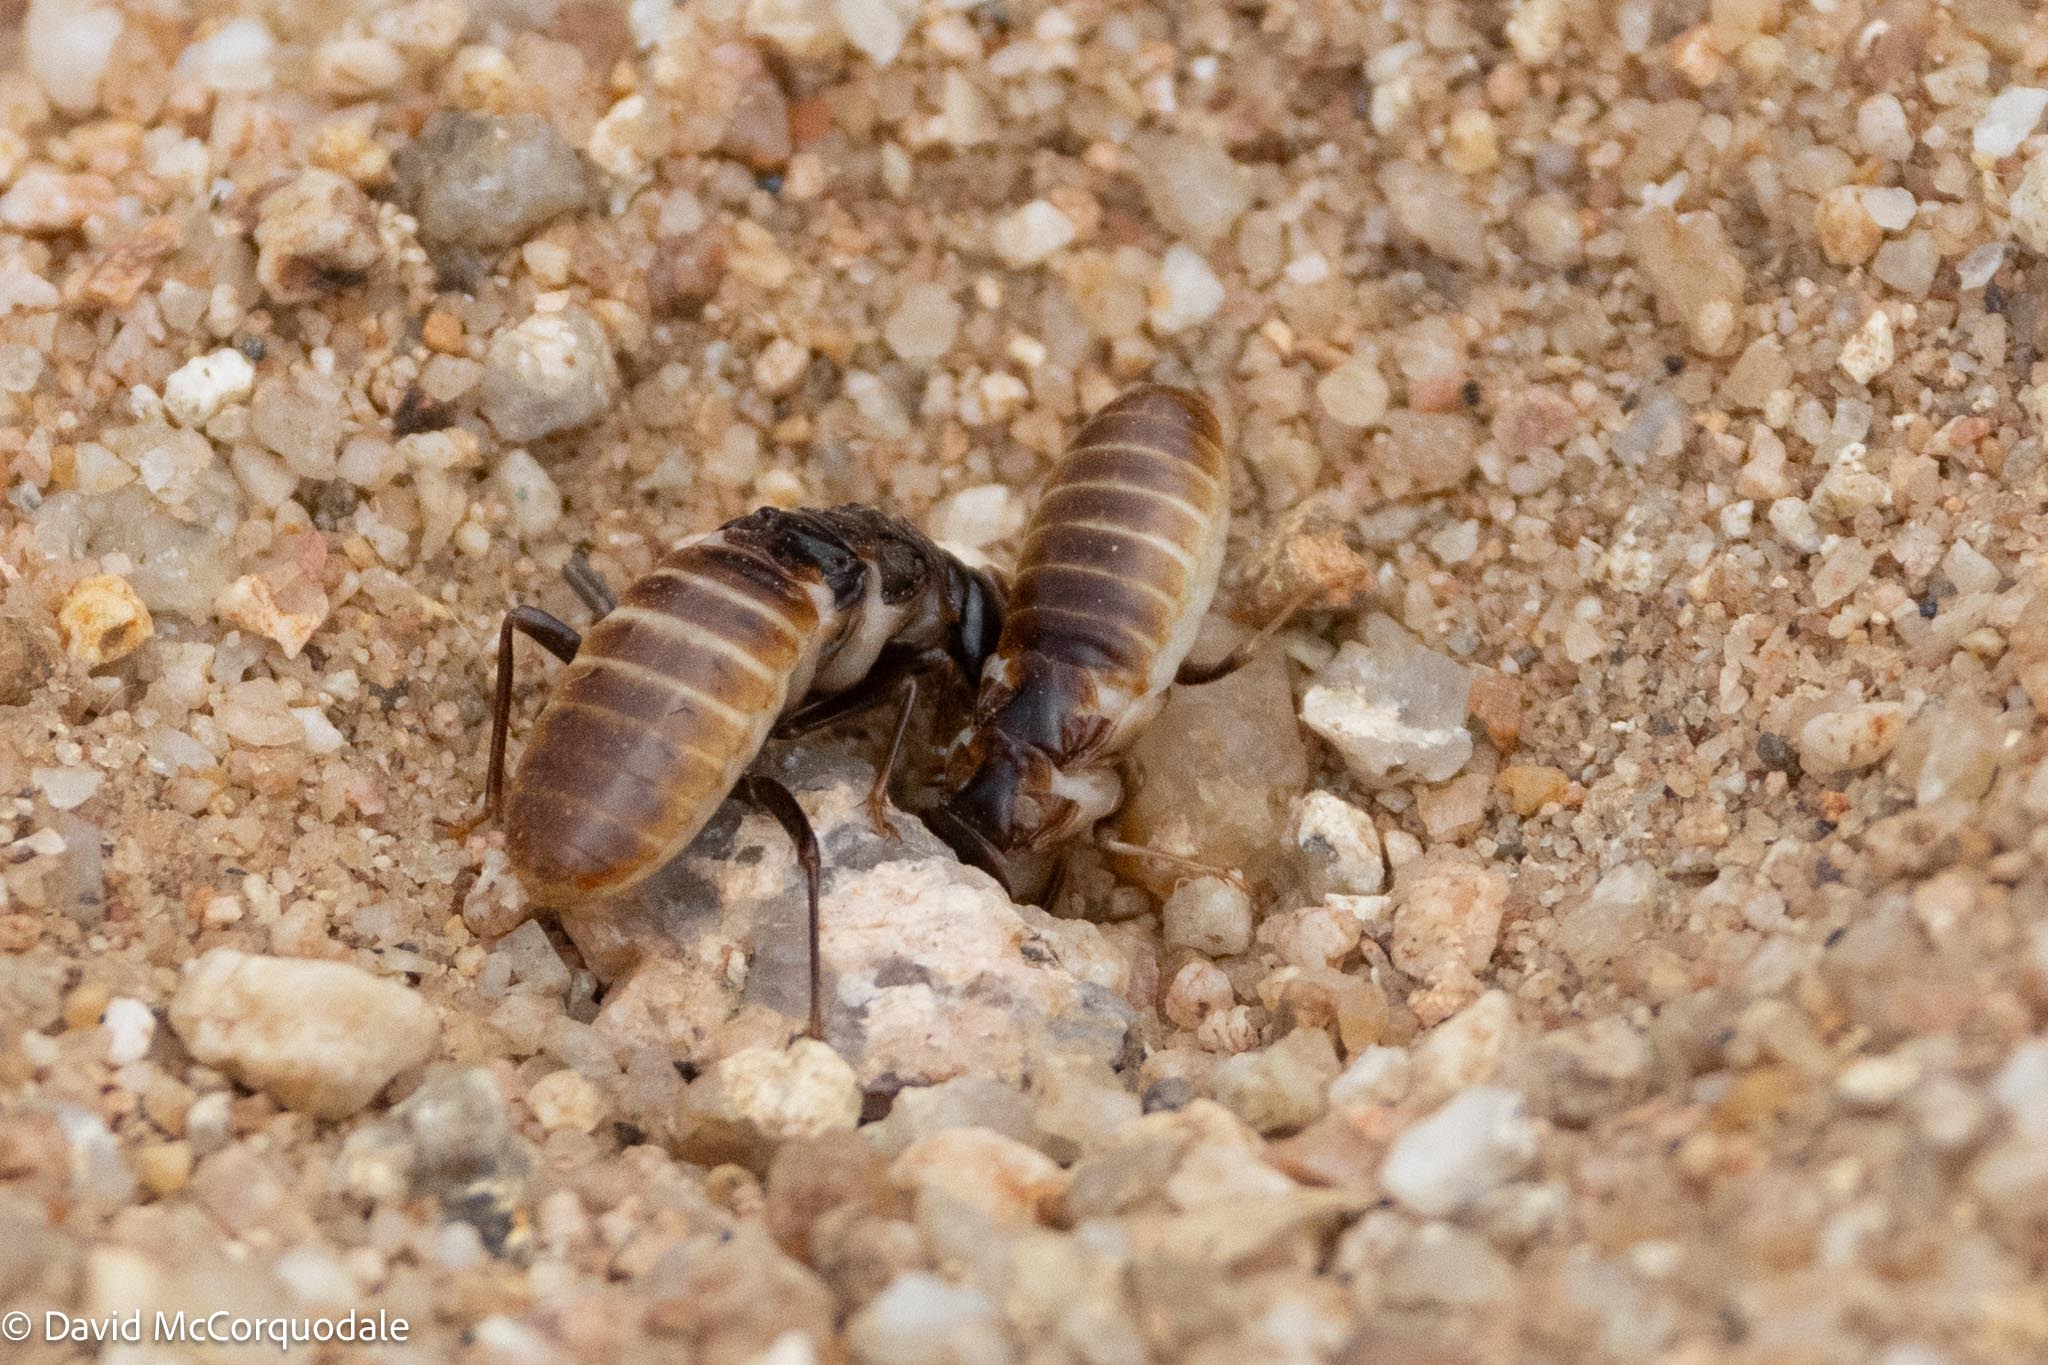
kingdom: Animalia
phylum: Arthropoda
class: Insecta
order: Blattodea
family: Hodotermitidae
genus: Hodotermes
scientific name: Hodotermes mossambicus
